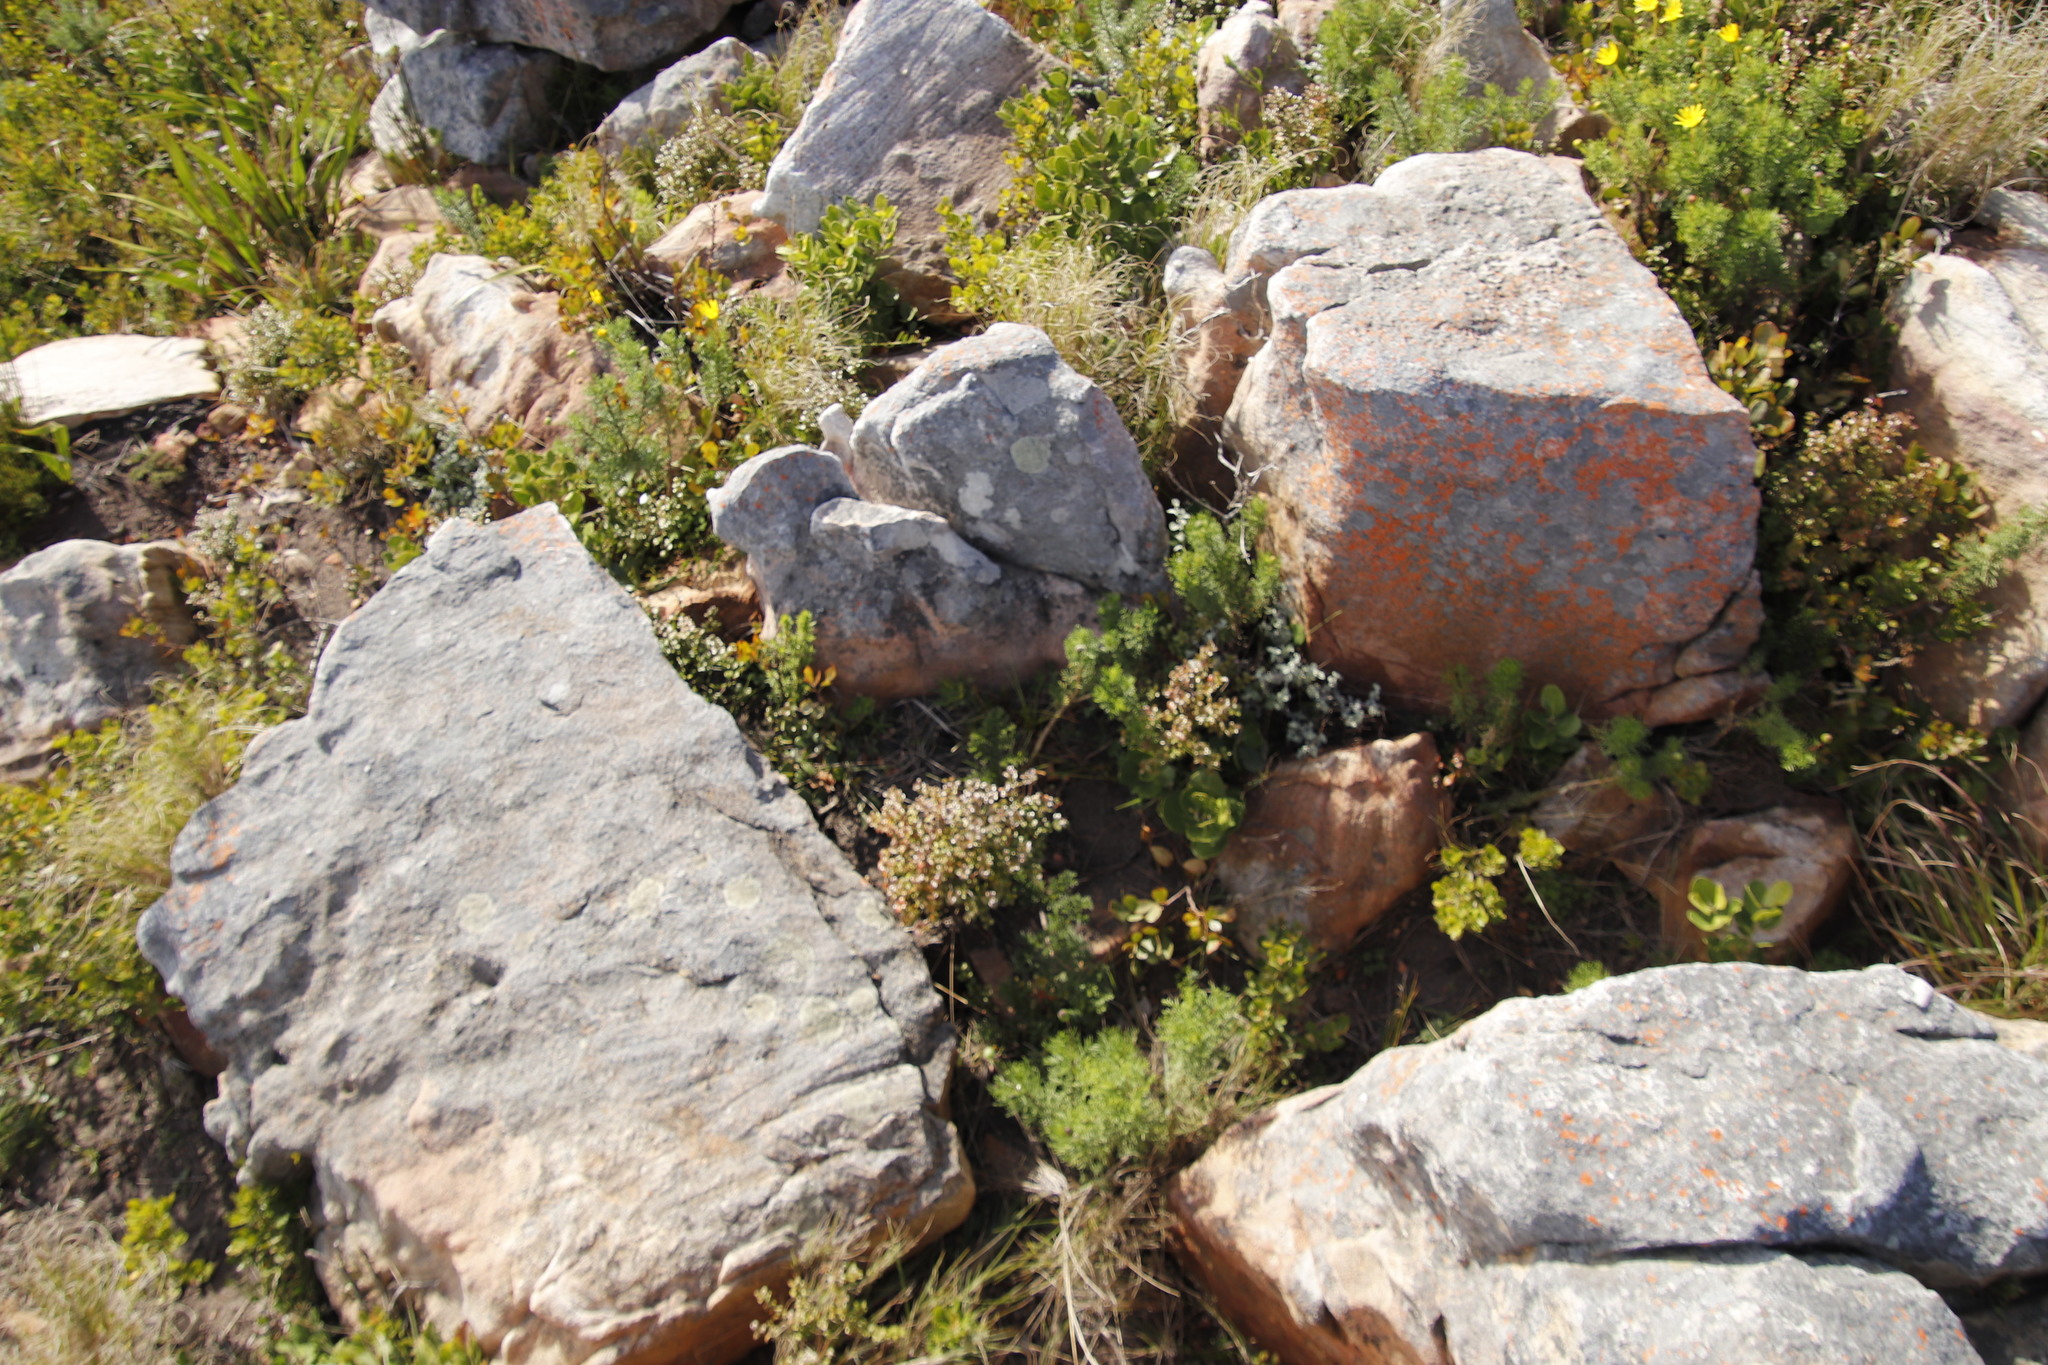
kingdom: Plantae
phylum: Tracheophyta
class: Magnoliopsida
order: Ericales
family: Primulaceae
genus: Myrsine
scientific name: Myrsine africana
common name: African-boxwood
